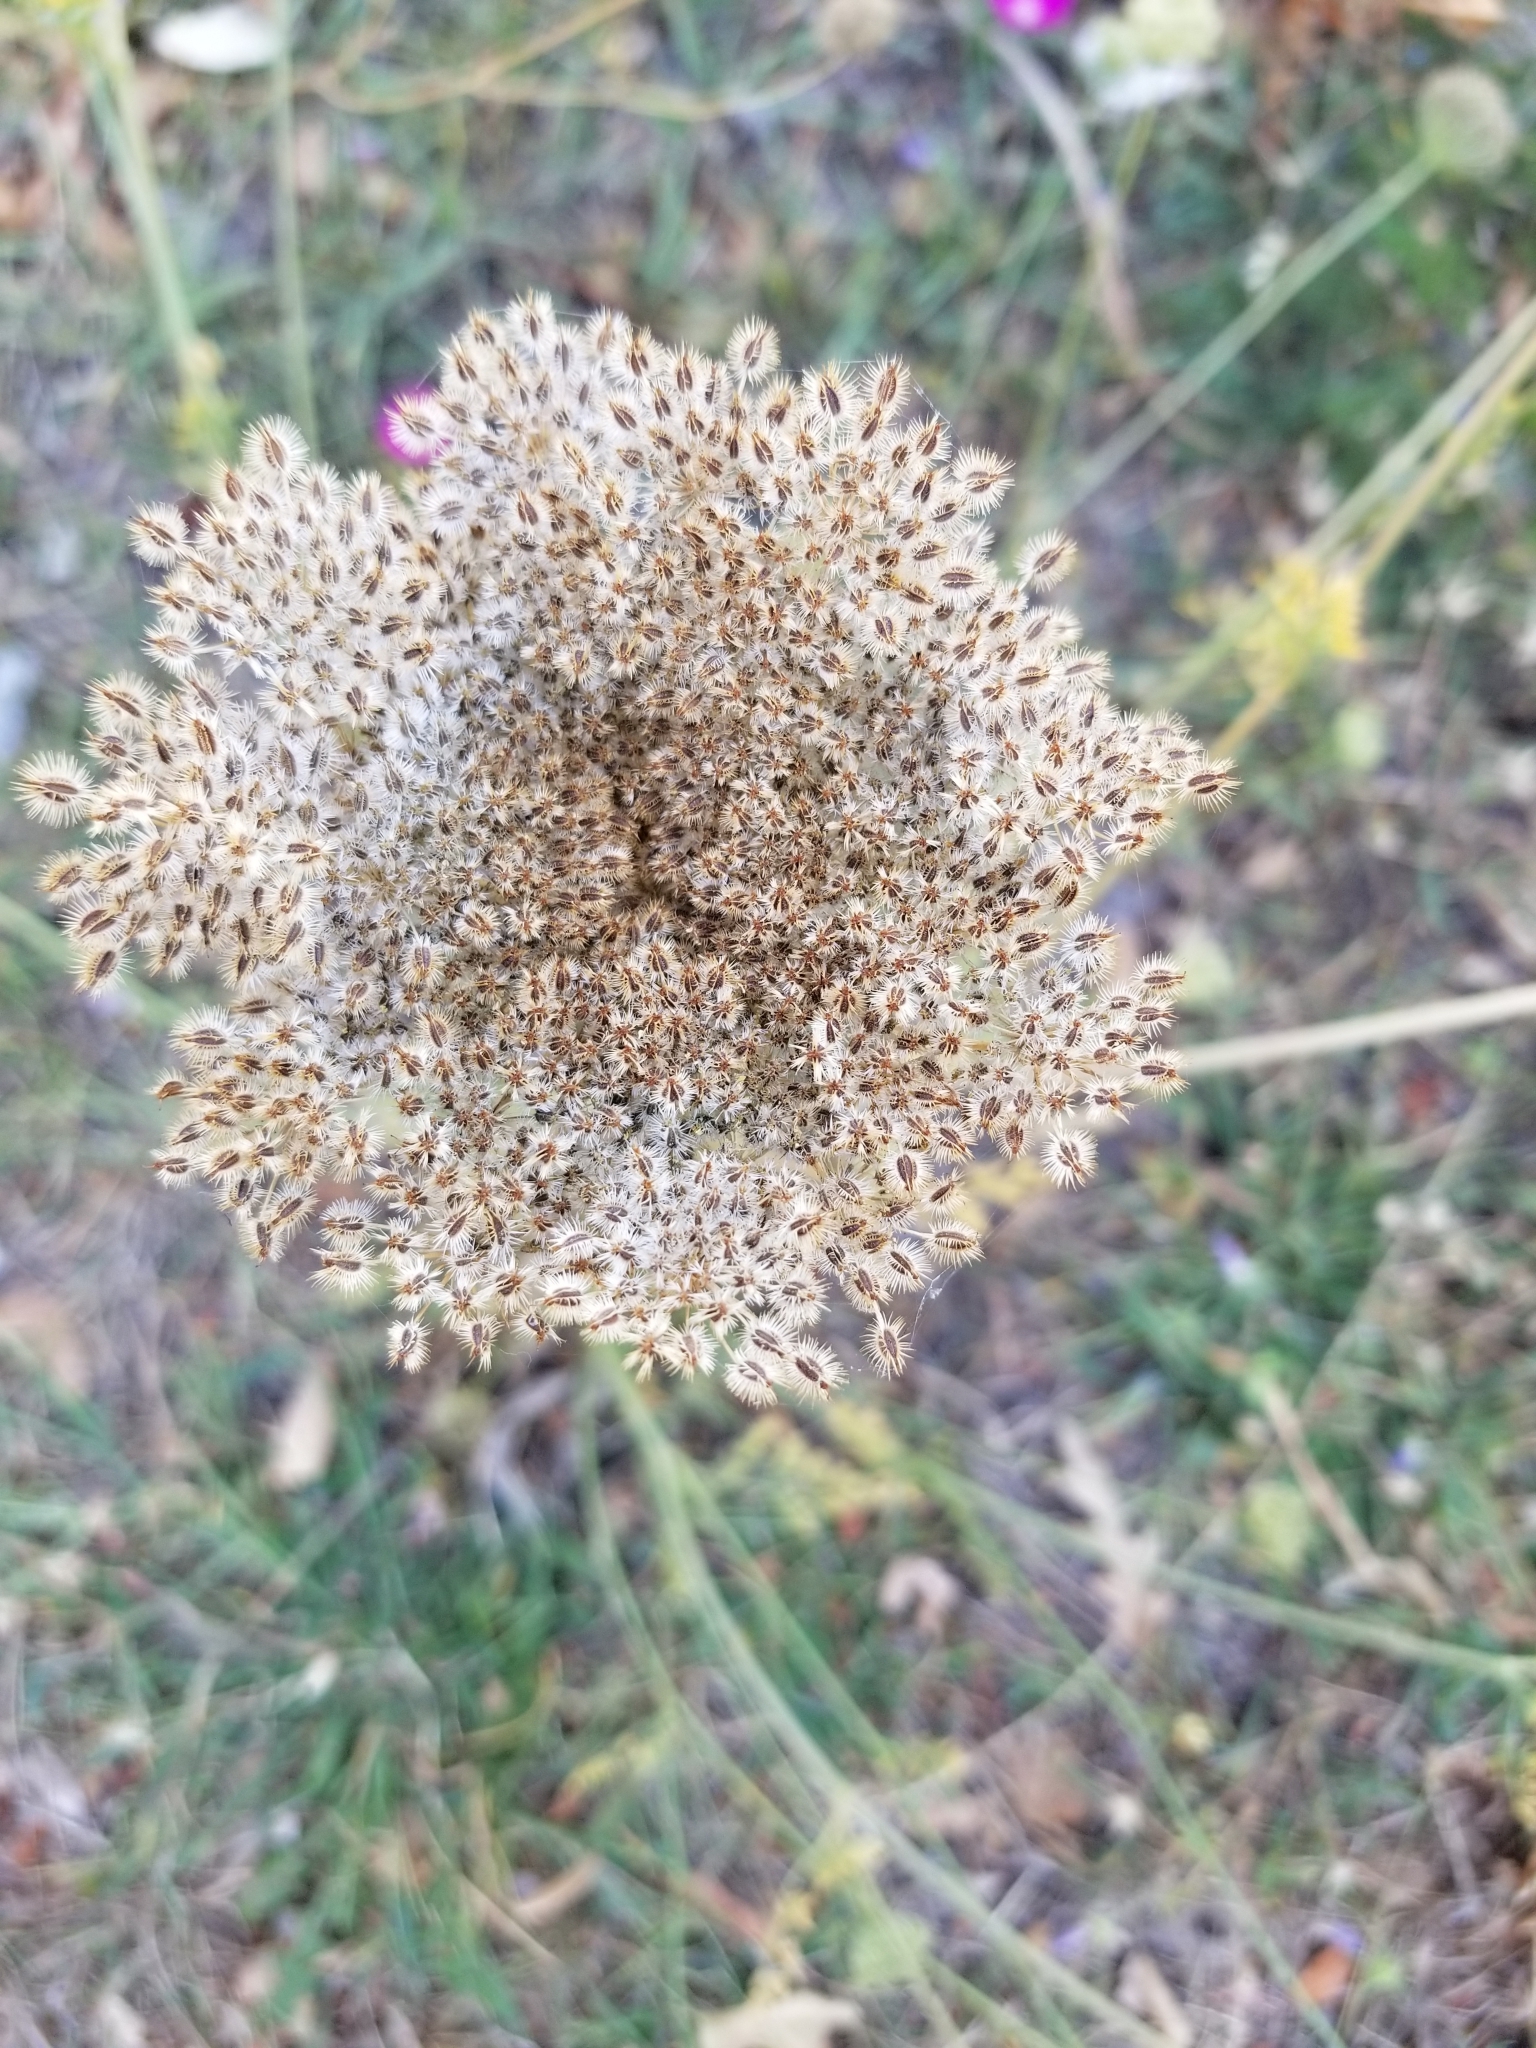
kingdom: Plantae
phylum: Tracheophyta
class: Magnoliopsida
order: Apiales
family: Apiaceae
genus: Daucus
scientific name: Daucus carota
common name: Wild carrot
